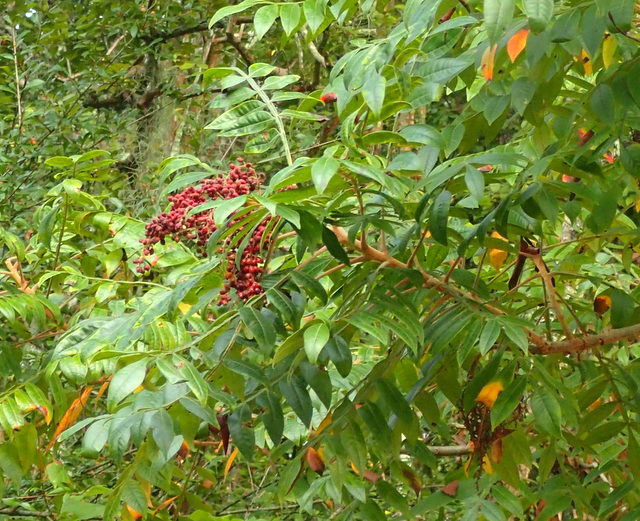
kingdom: Plantae
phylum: Tracheophyta
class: Magnoliopsida
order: Sapindales
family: Anacardiaceae
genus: Rhus
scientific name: Rhus copallina
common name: Shining sumac
